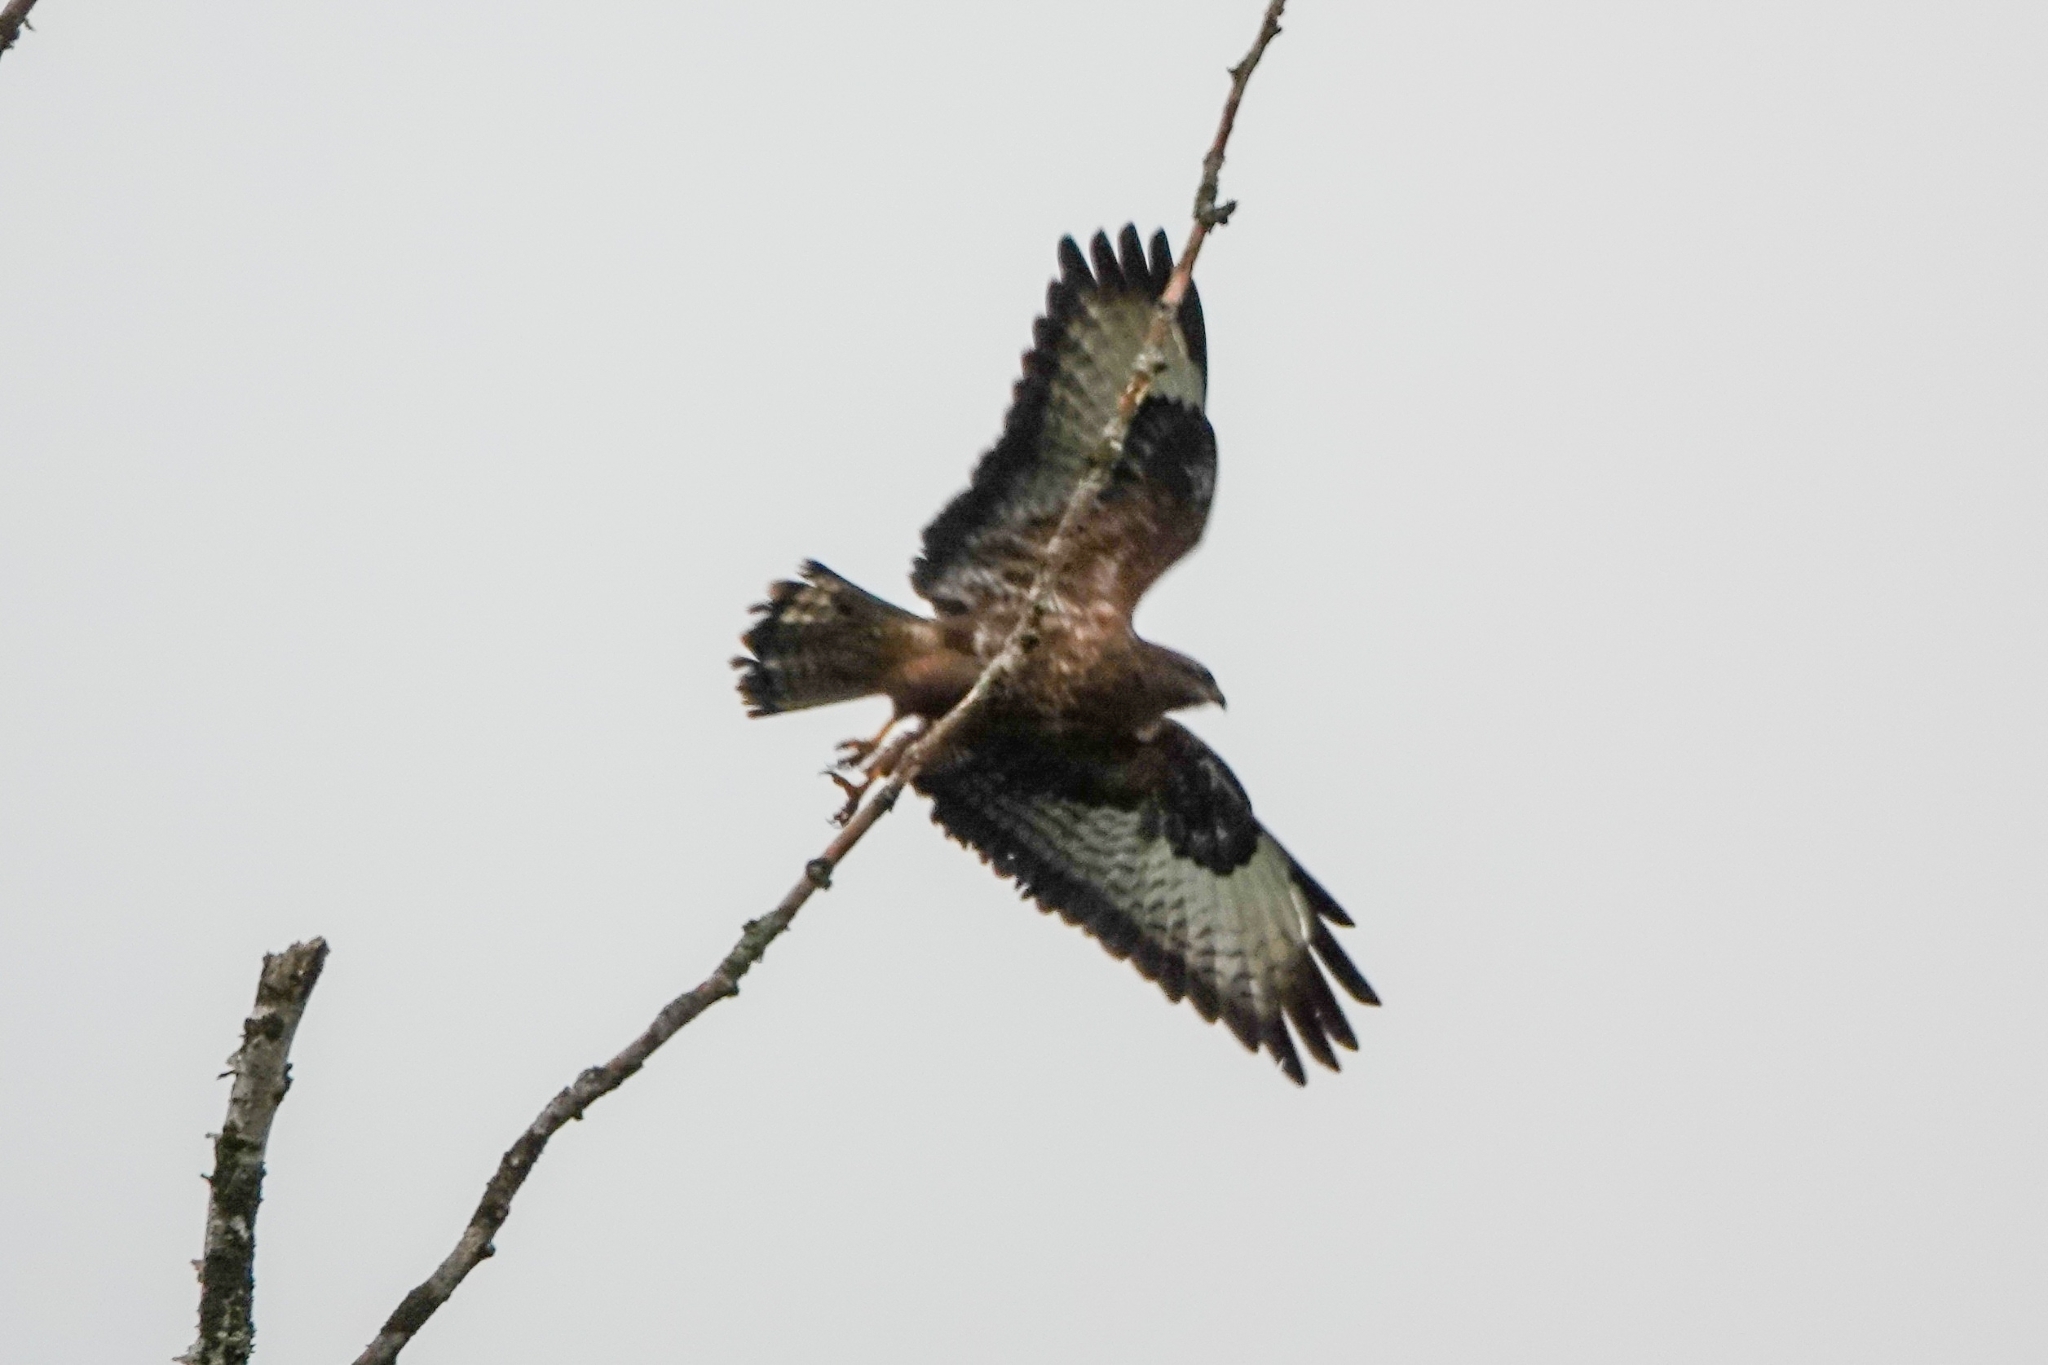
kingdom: Animalia
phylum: Chordata
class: Aves
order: Accipitriformes
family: Accipitridae
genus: Buteo
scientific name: Buteo buteo
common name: Common buzzard
